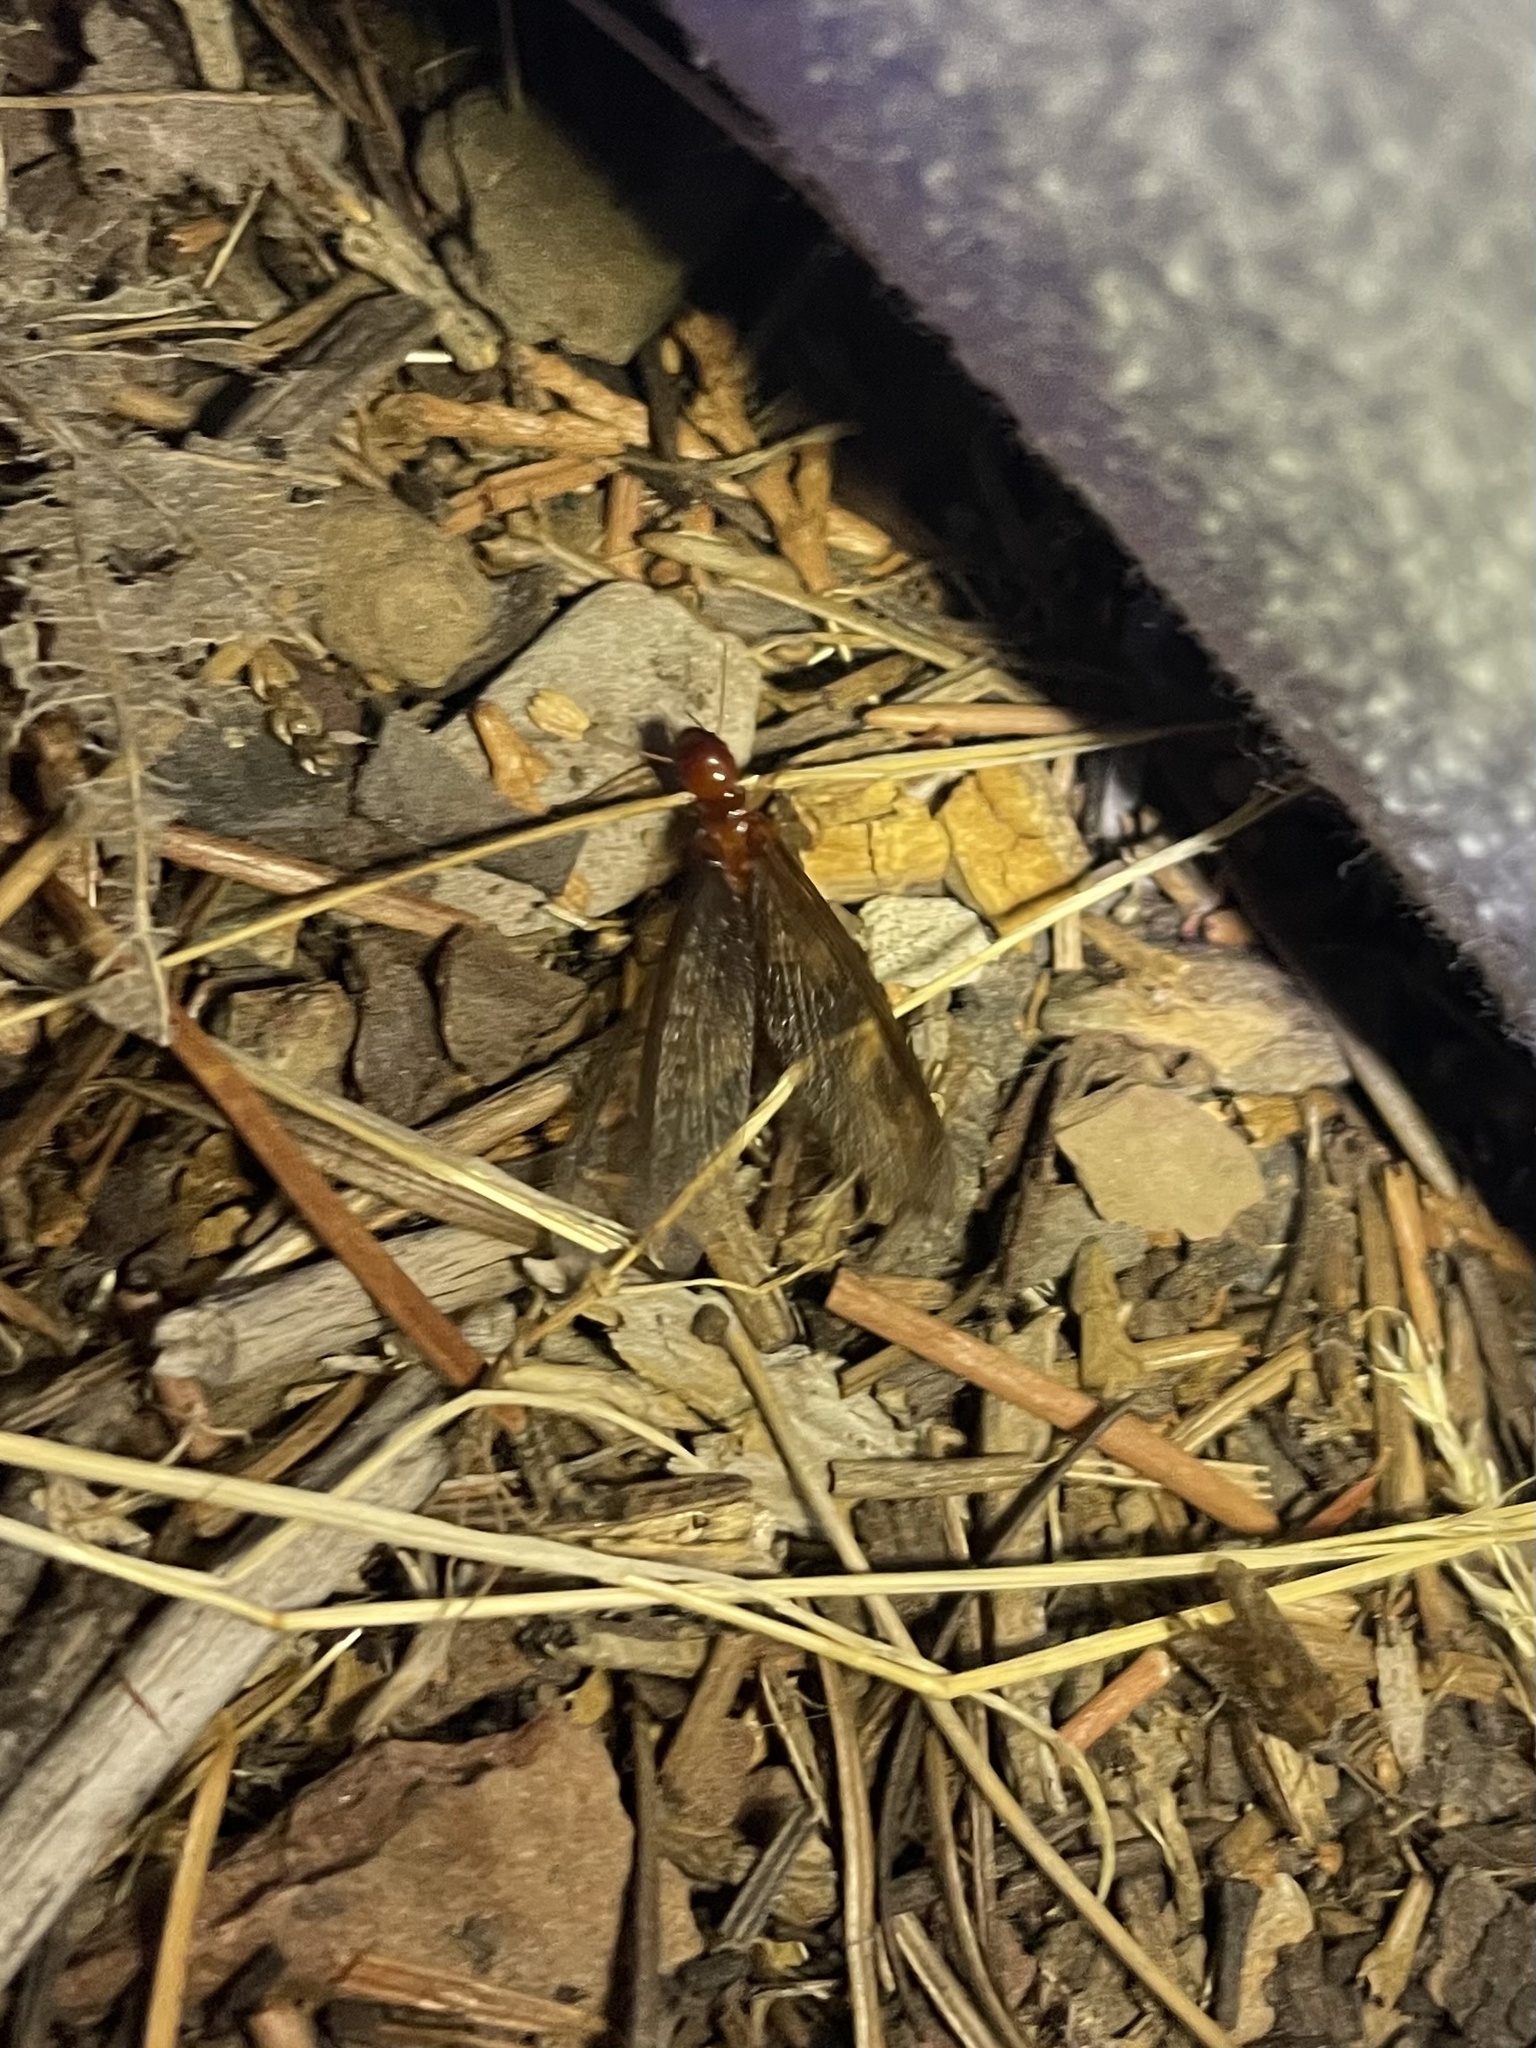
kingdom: Animalia
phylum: Arthropoda
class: Insecta
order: Blattodea
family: Archotermopsidae
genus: Zootermopsis
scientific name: Zootermopsis nevadensis
